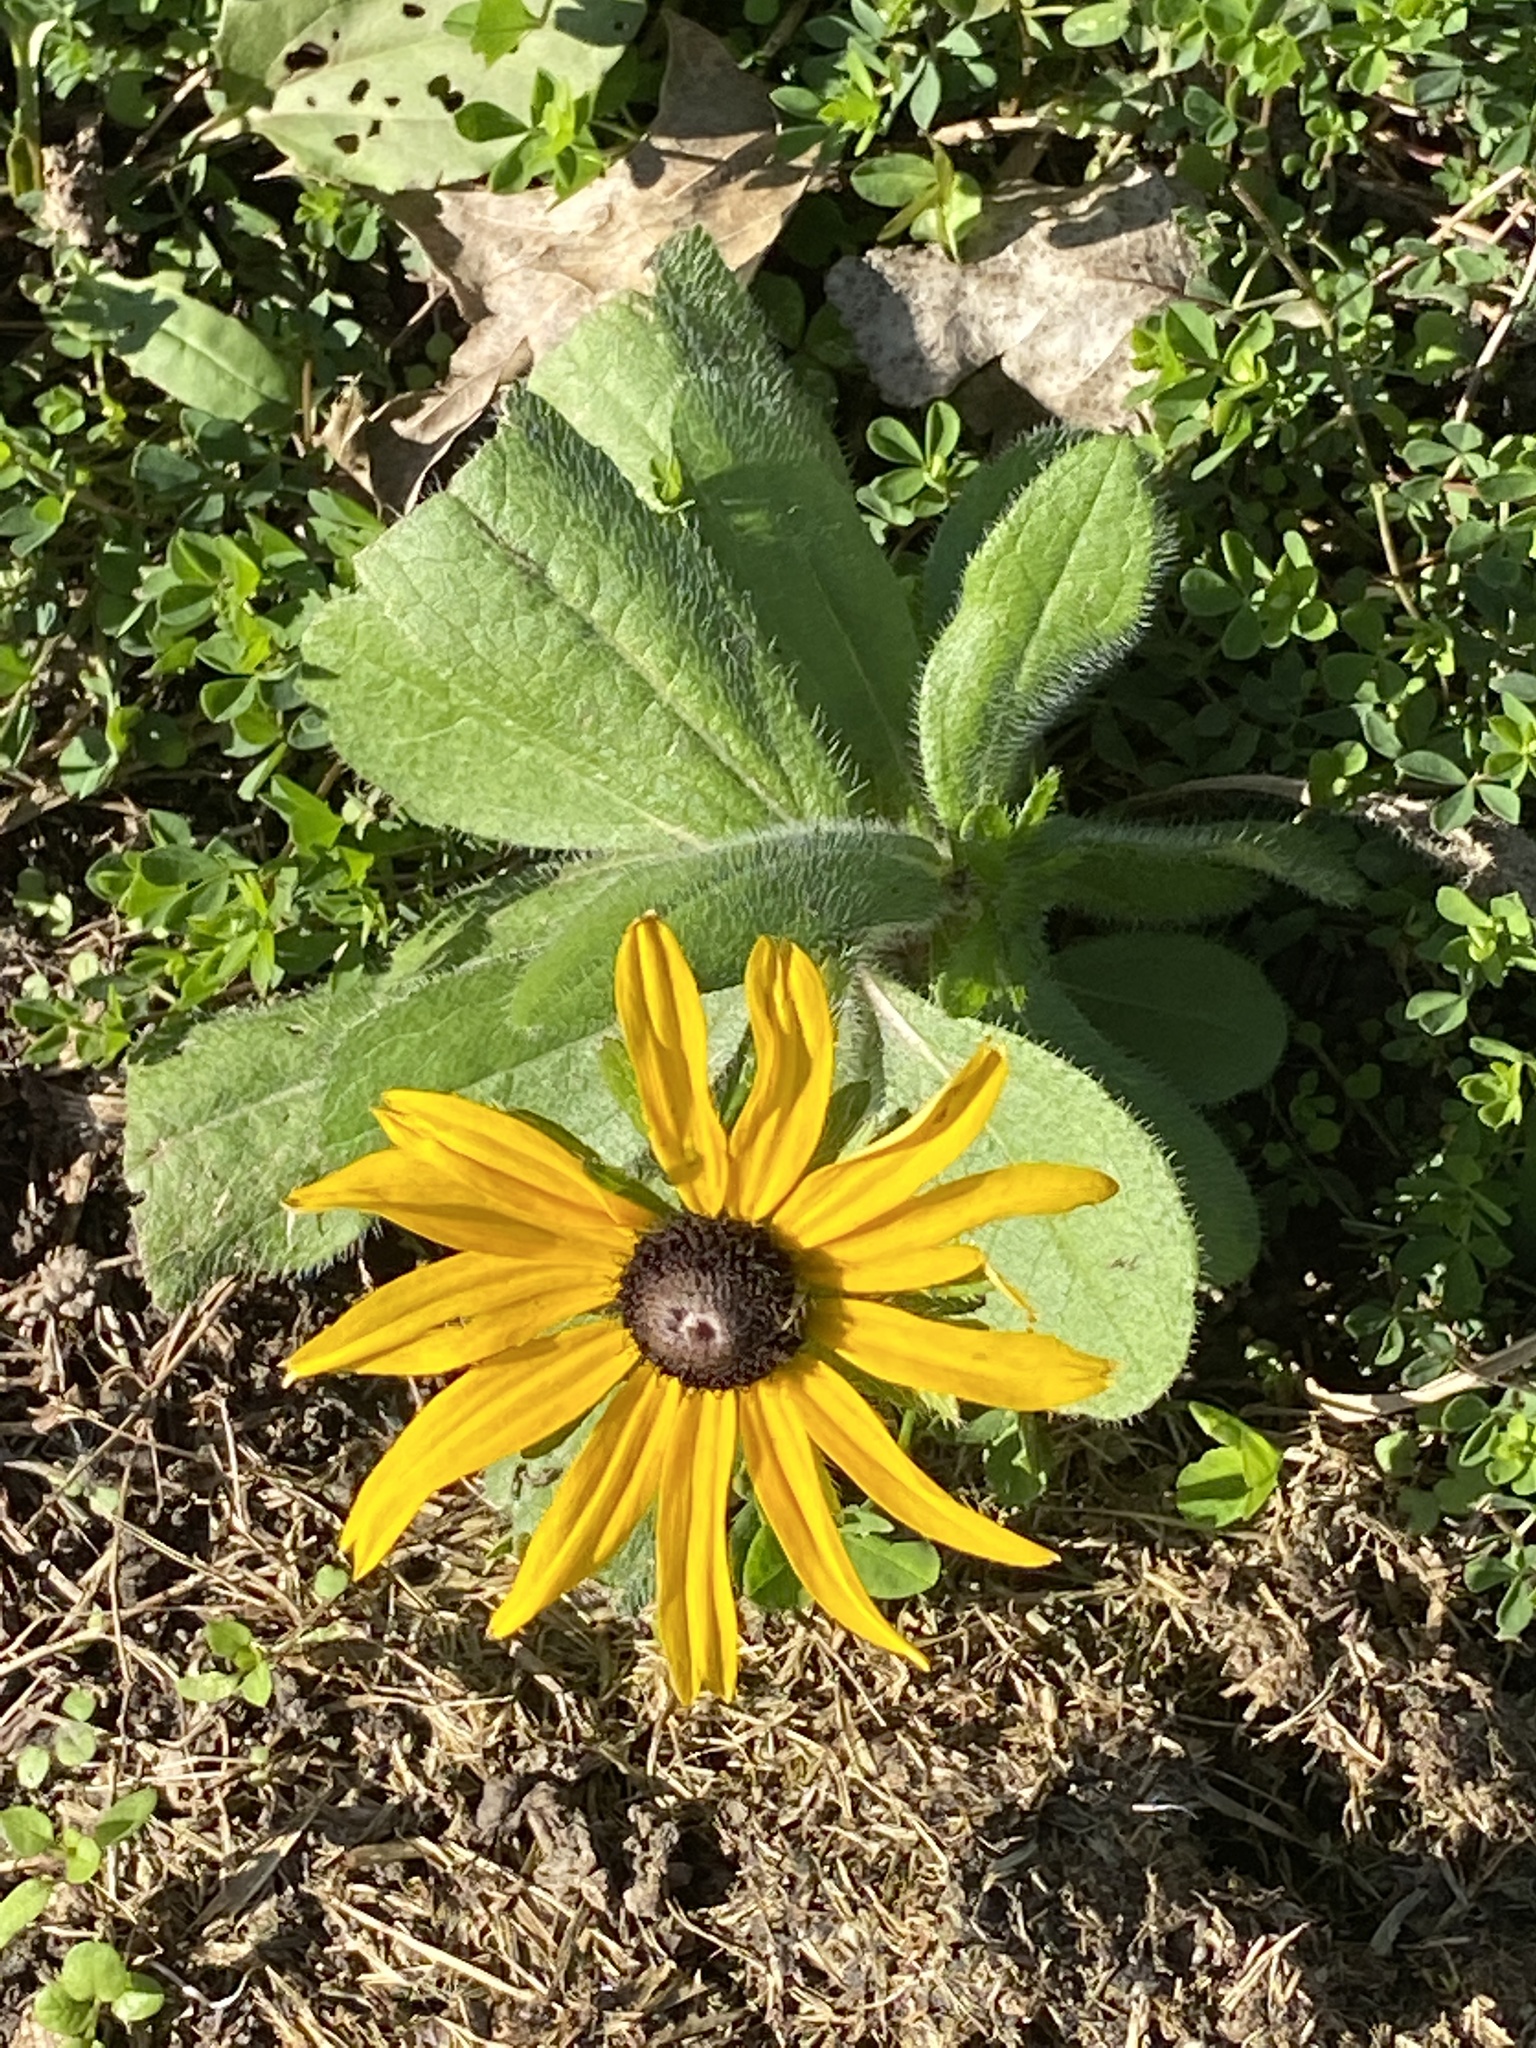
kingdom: Plantae
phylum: Tracheophyta
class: Magnoliopsida
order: Asterales
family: Asteraceae
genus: Rudbeckia
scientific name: Rudbeckia hirta
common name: Black-eyed-susan
